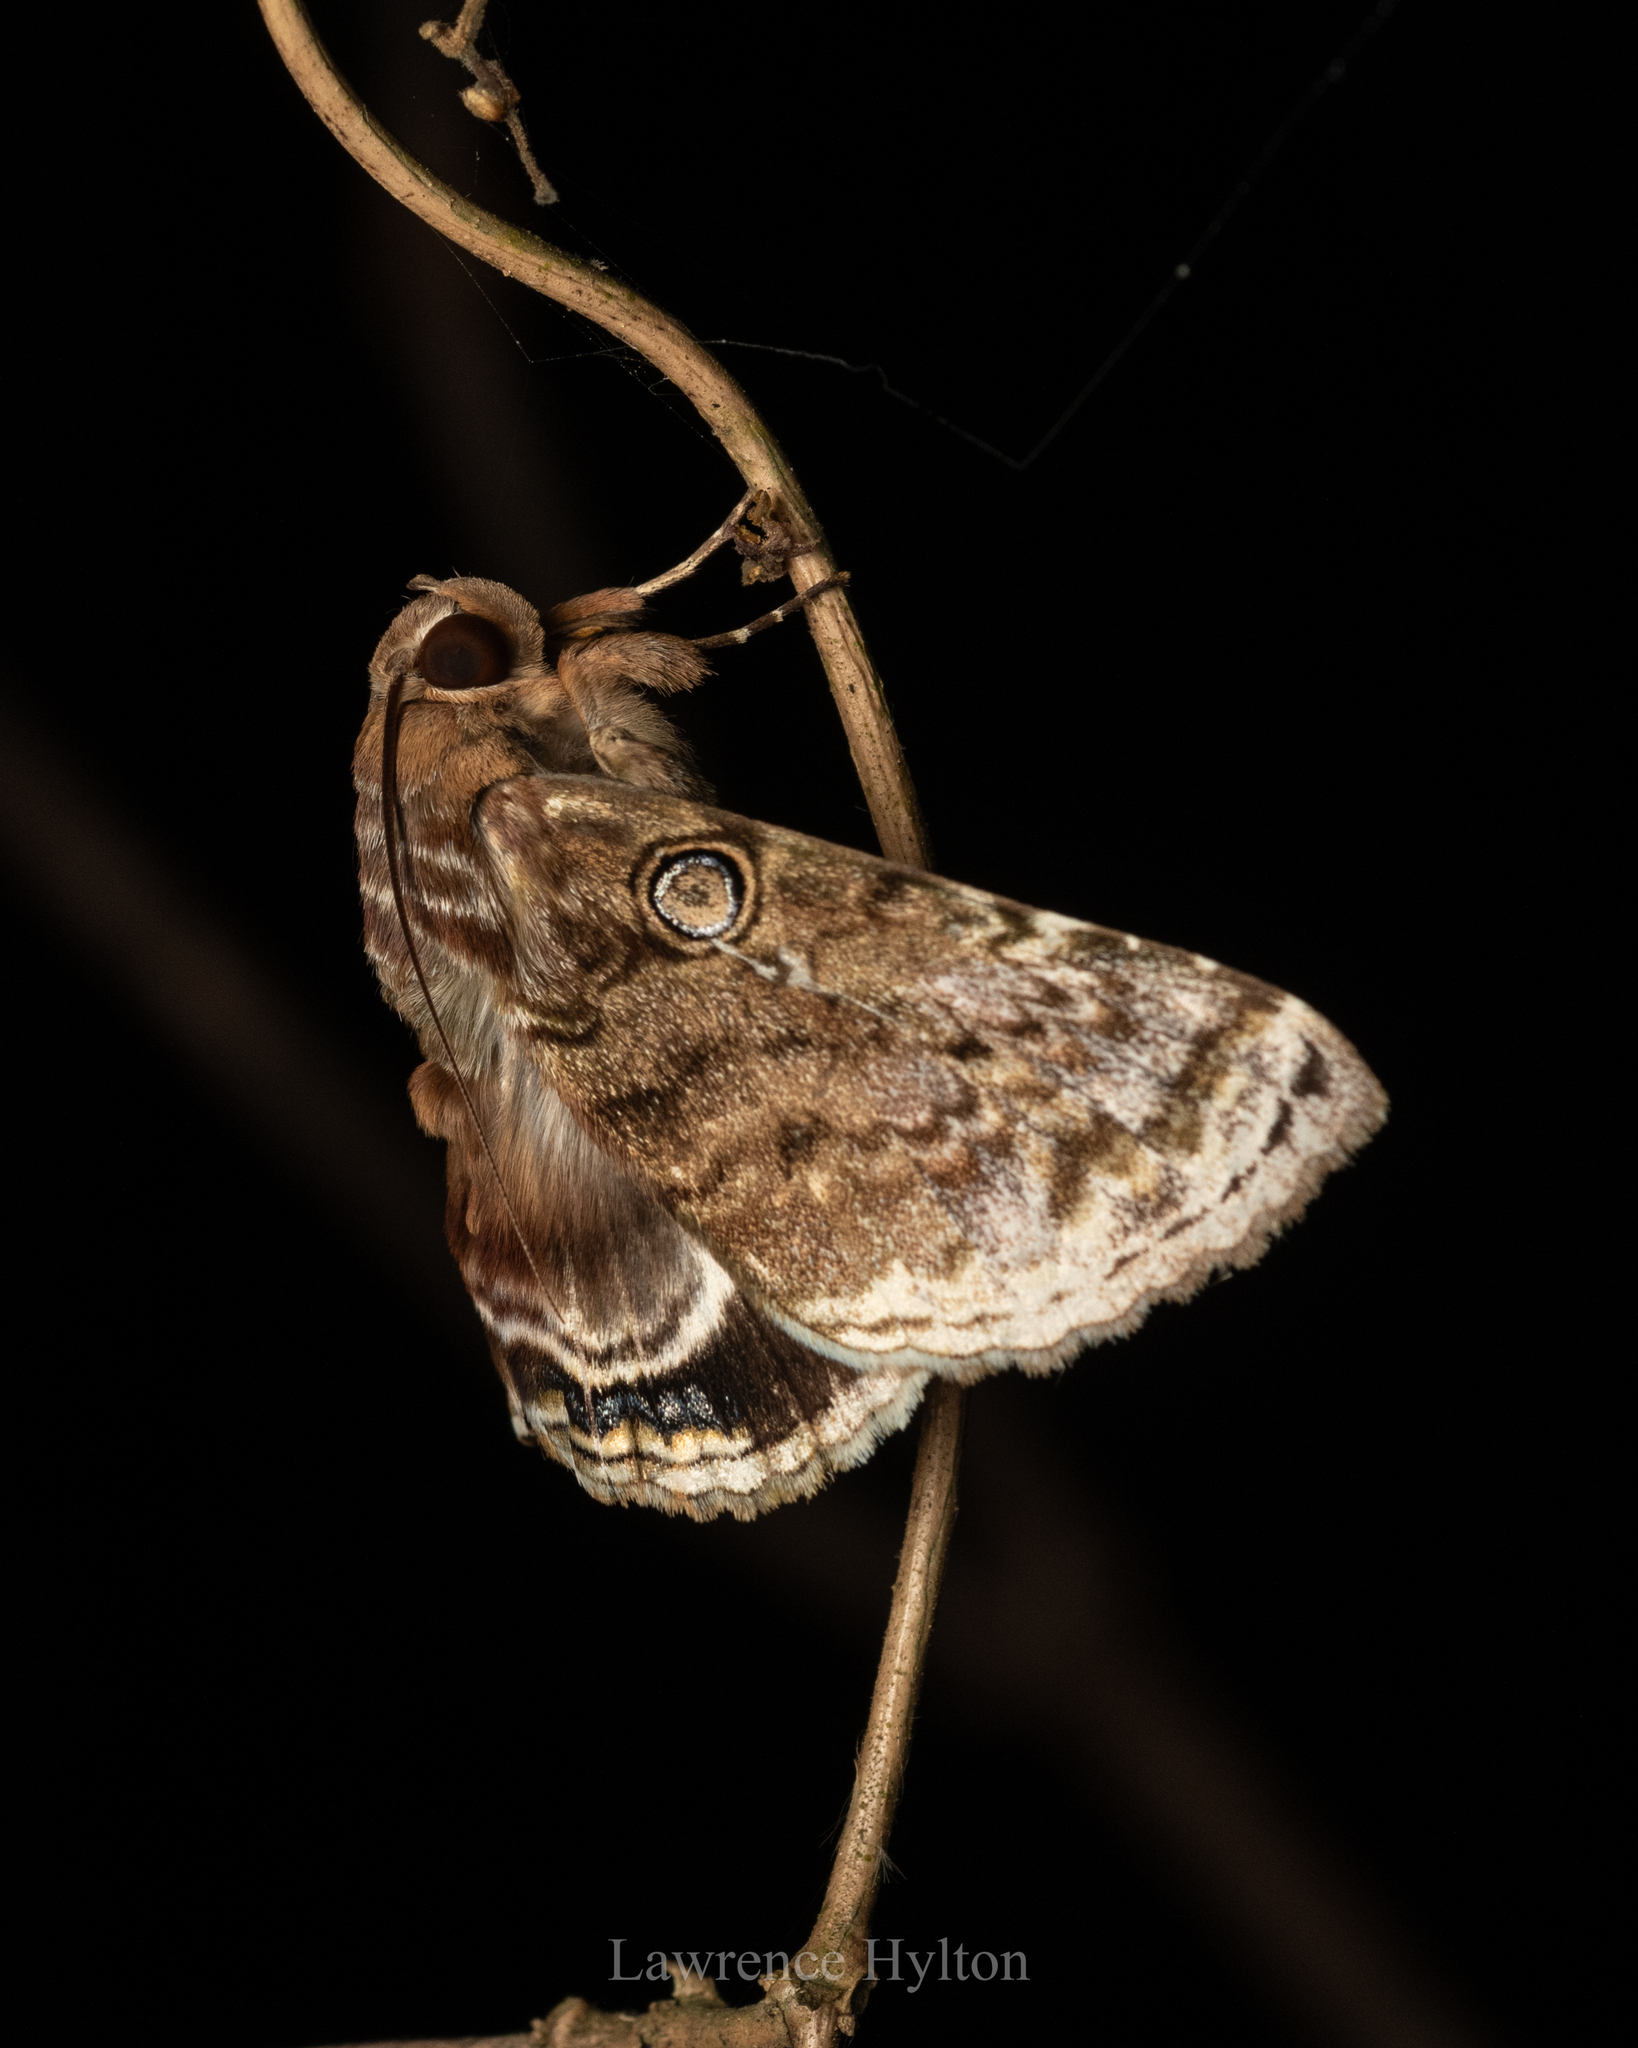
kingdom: Animalia
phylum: Arthropoda
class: Insecta
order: Lepidoptera
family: Erebidae
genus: Cyclodes
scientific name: Cyclodes omma
